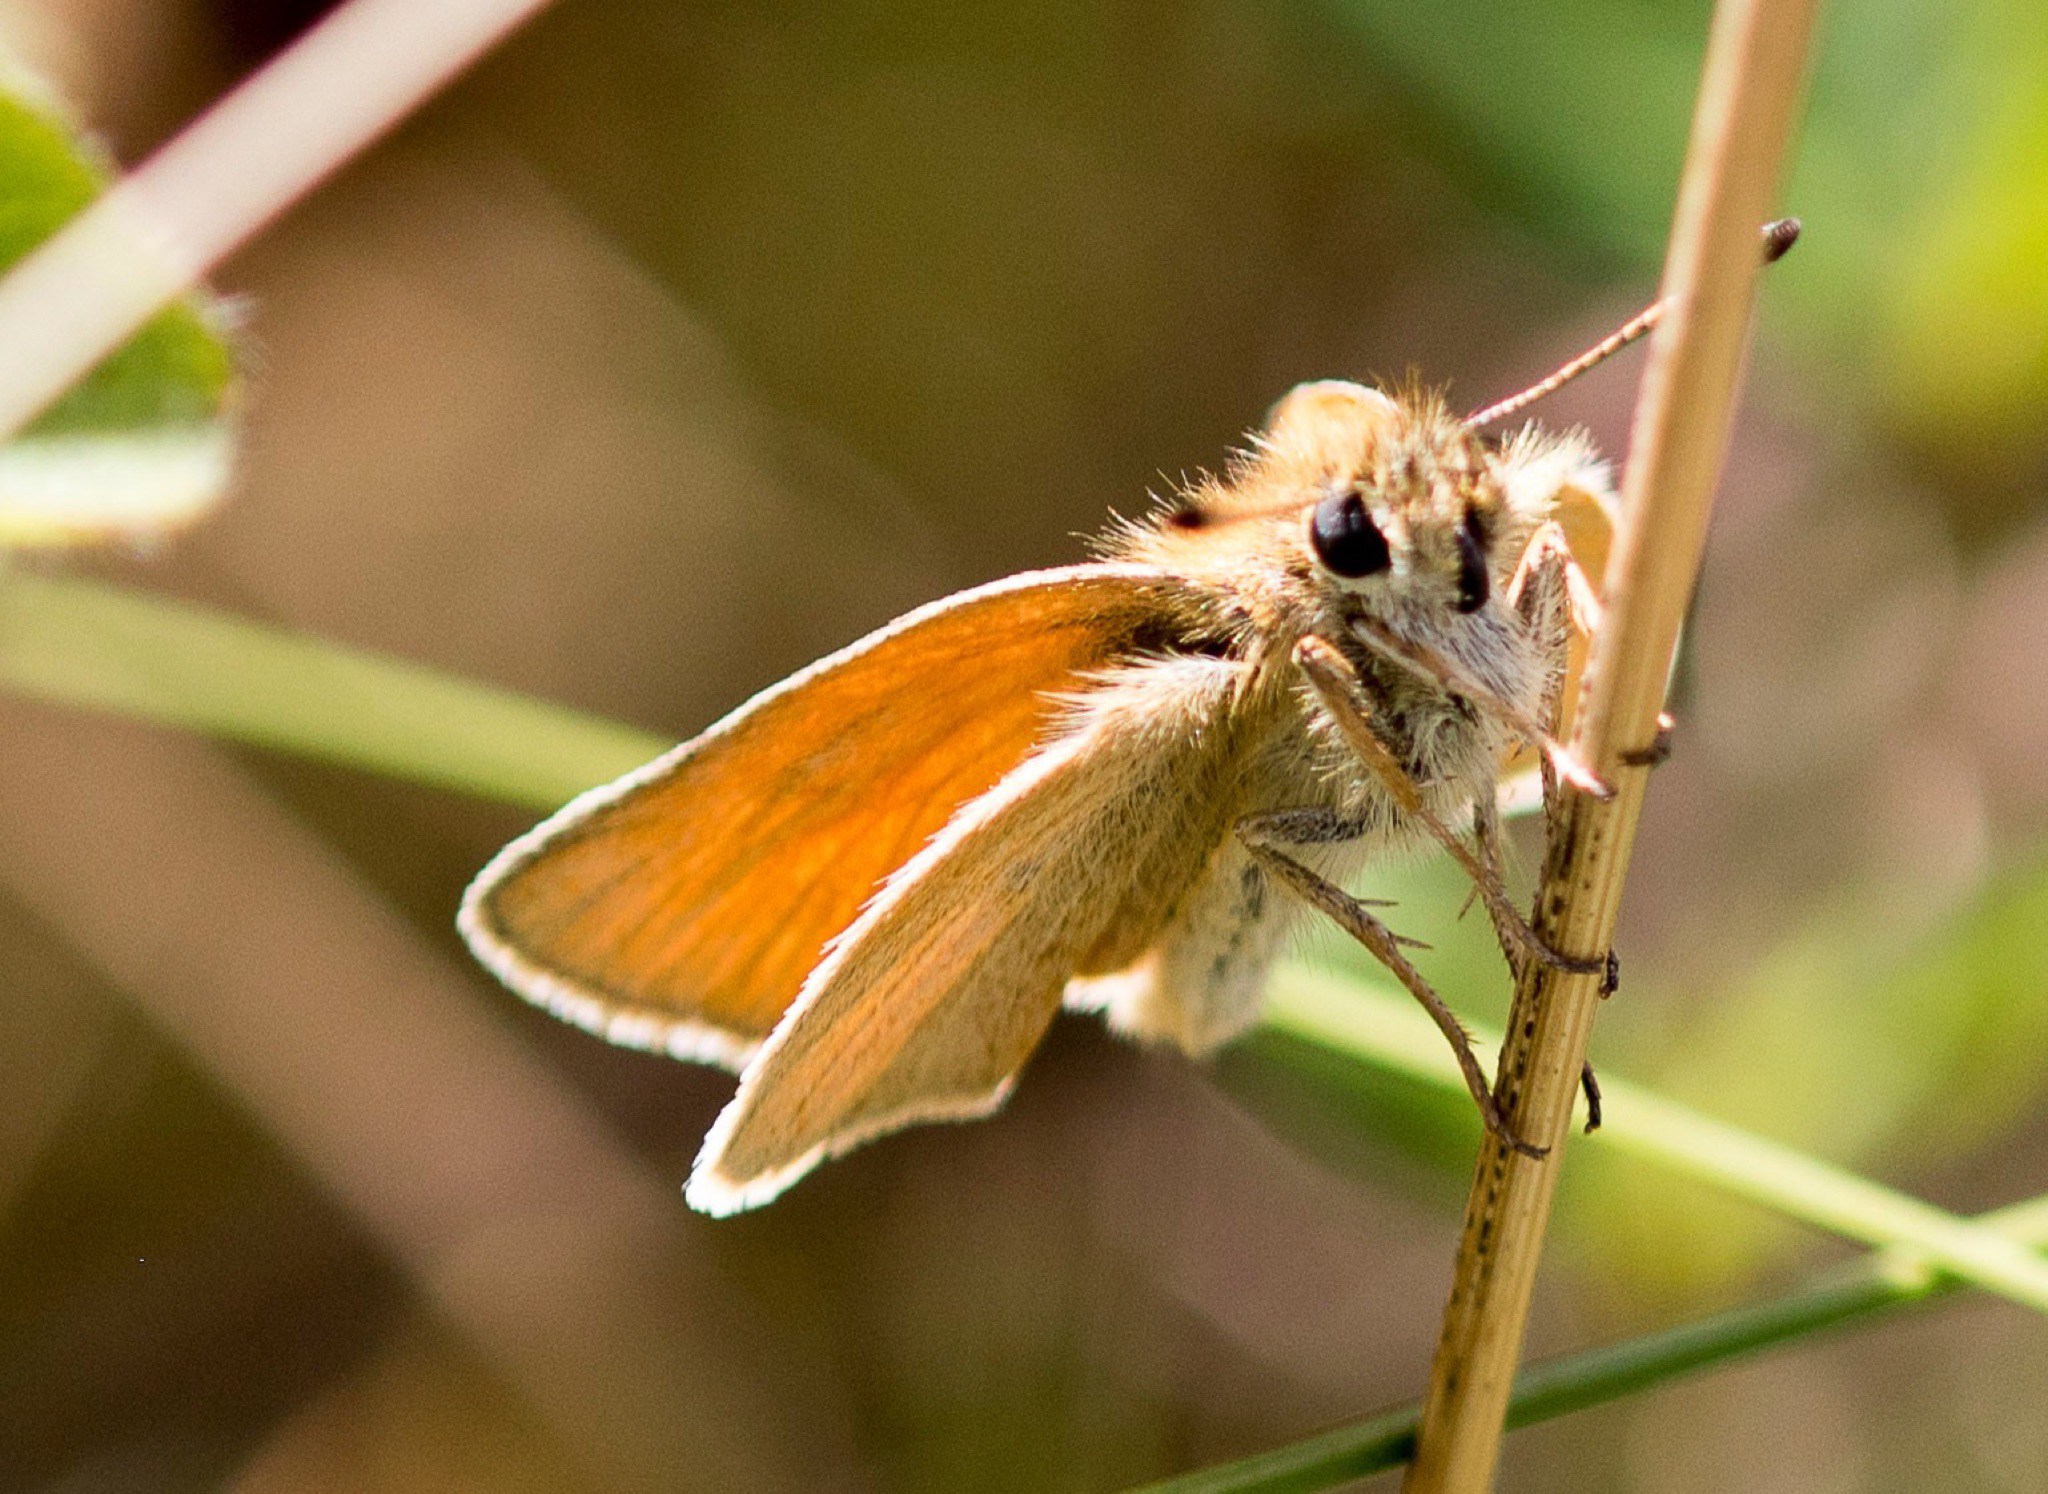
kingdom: Animalia
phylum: Arthropoda
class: Insecta
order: Lepidoptera
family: Hesperiidae
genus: Thymelicus
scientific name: Thymelicus lineola
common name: Essex skipper
